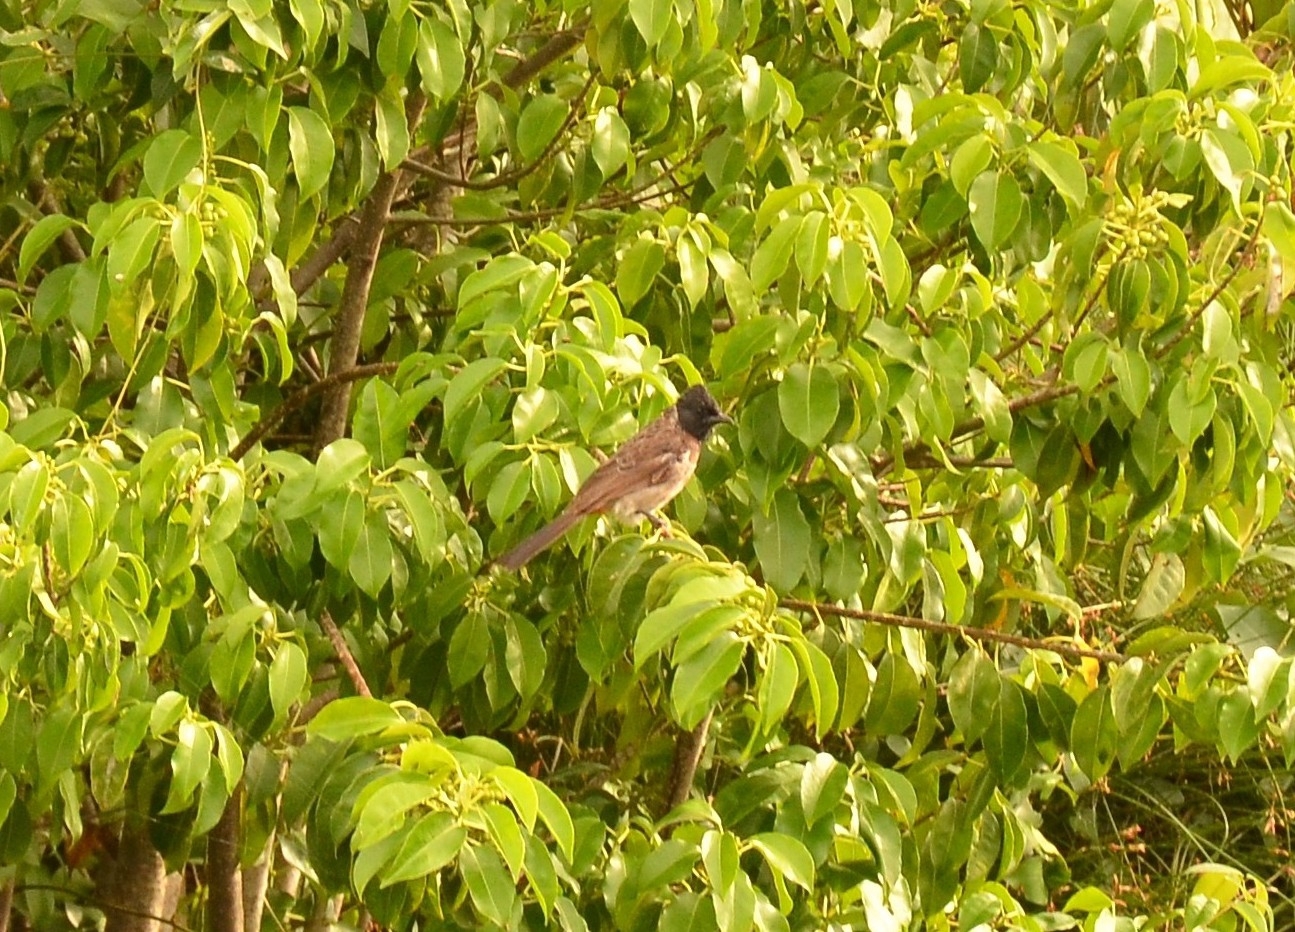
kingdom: Animalia
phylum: Chordata
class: Aves
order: Passeriformes
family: Pycnonotidae
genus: Pycnonotus
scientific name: Pycnonotus cafer
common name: Red-vented bulbul
